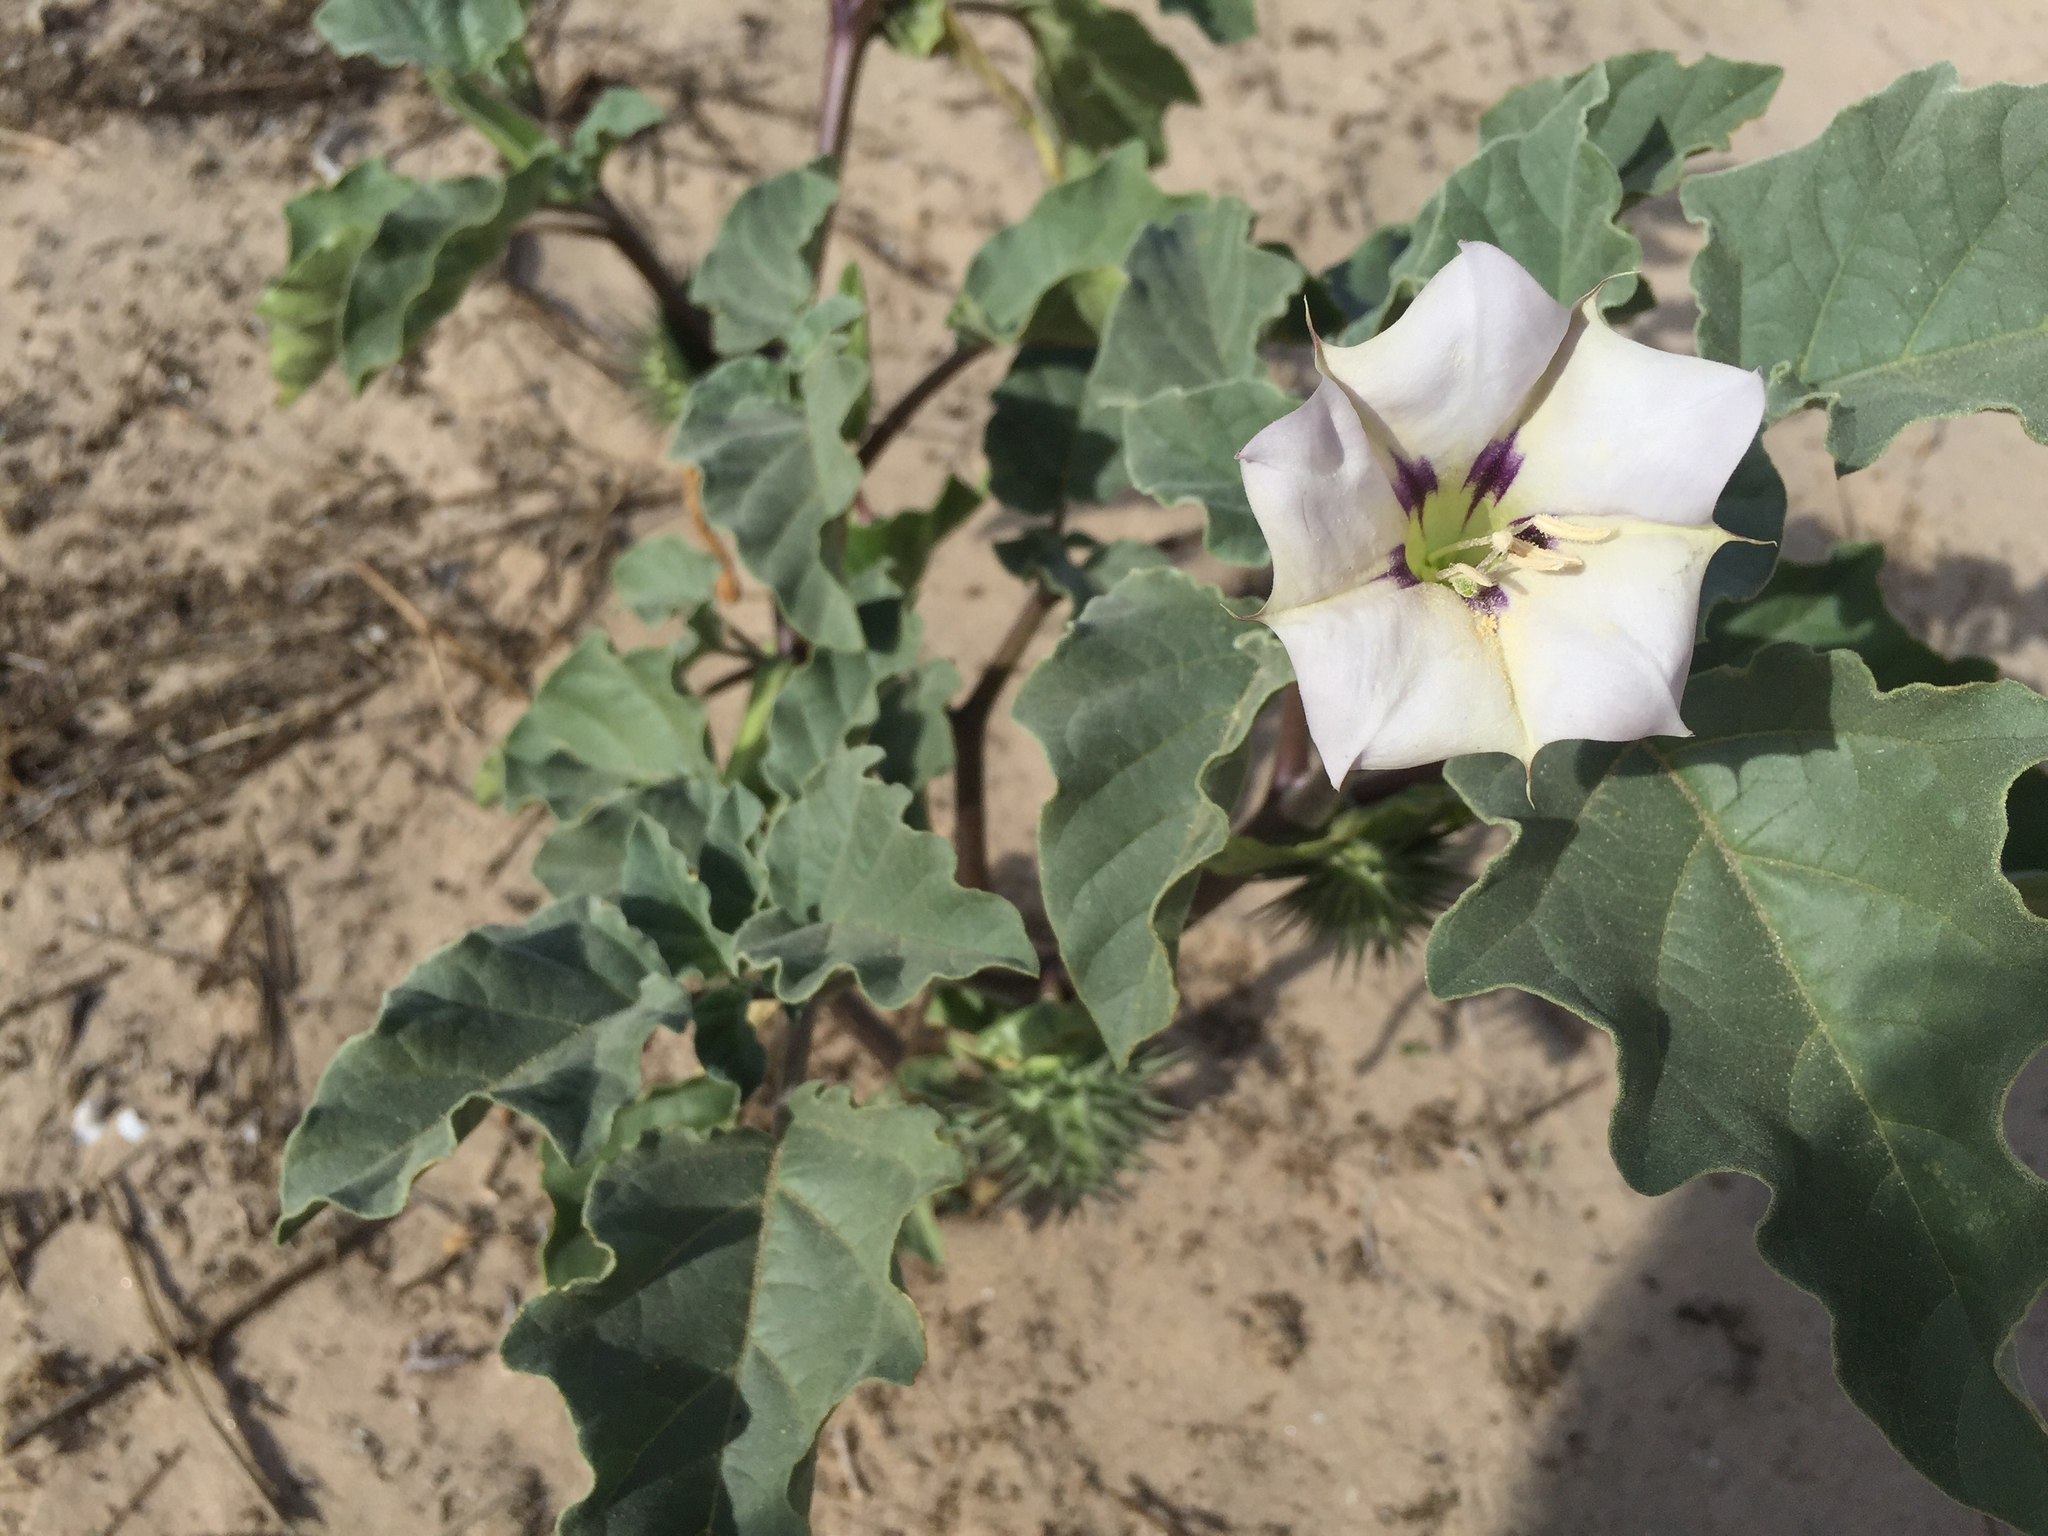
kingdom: Plantae
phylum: Tracheophyta
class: Magnoliopsida
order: Solanales
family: Solanaceae
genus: Datura
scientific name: Datura discolor
